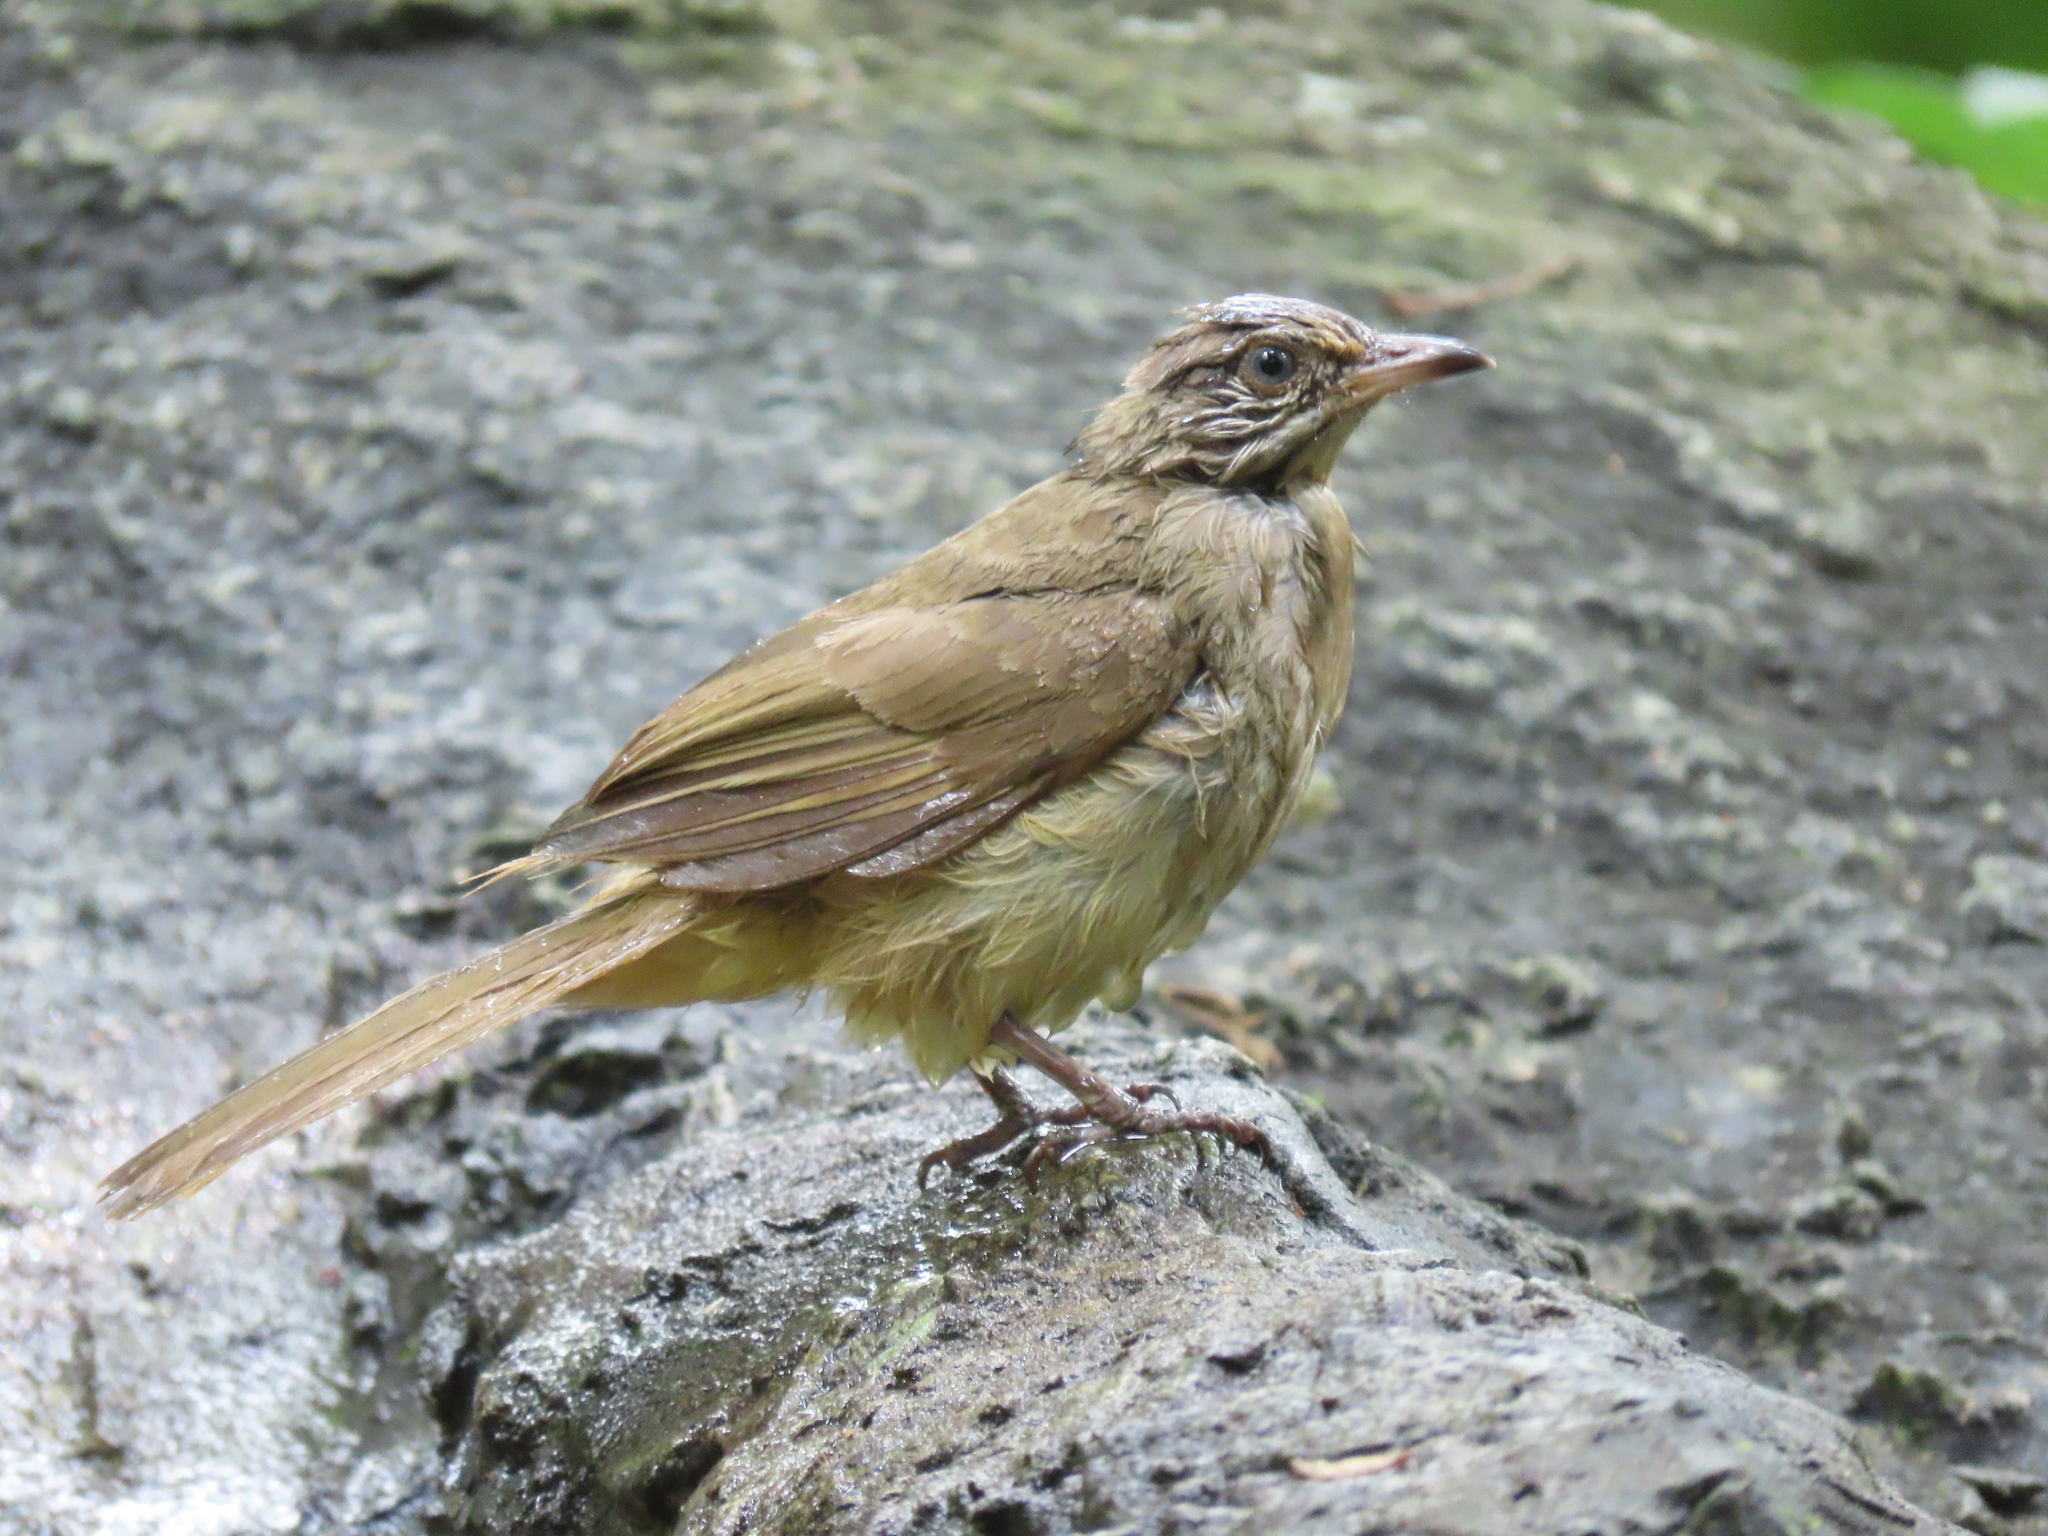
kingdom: Animalia
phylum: Chordata
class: Aves
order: Passeriformes
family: Pycnonotidae
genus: Pycnonotus
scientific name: Pycnonotus blanfordi
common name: Streak-eared bulbul
